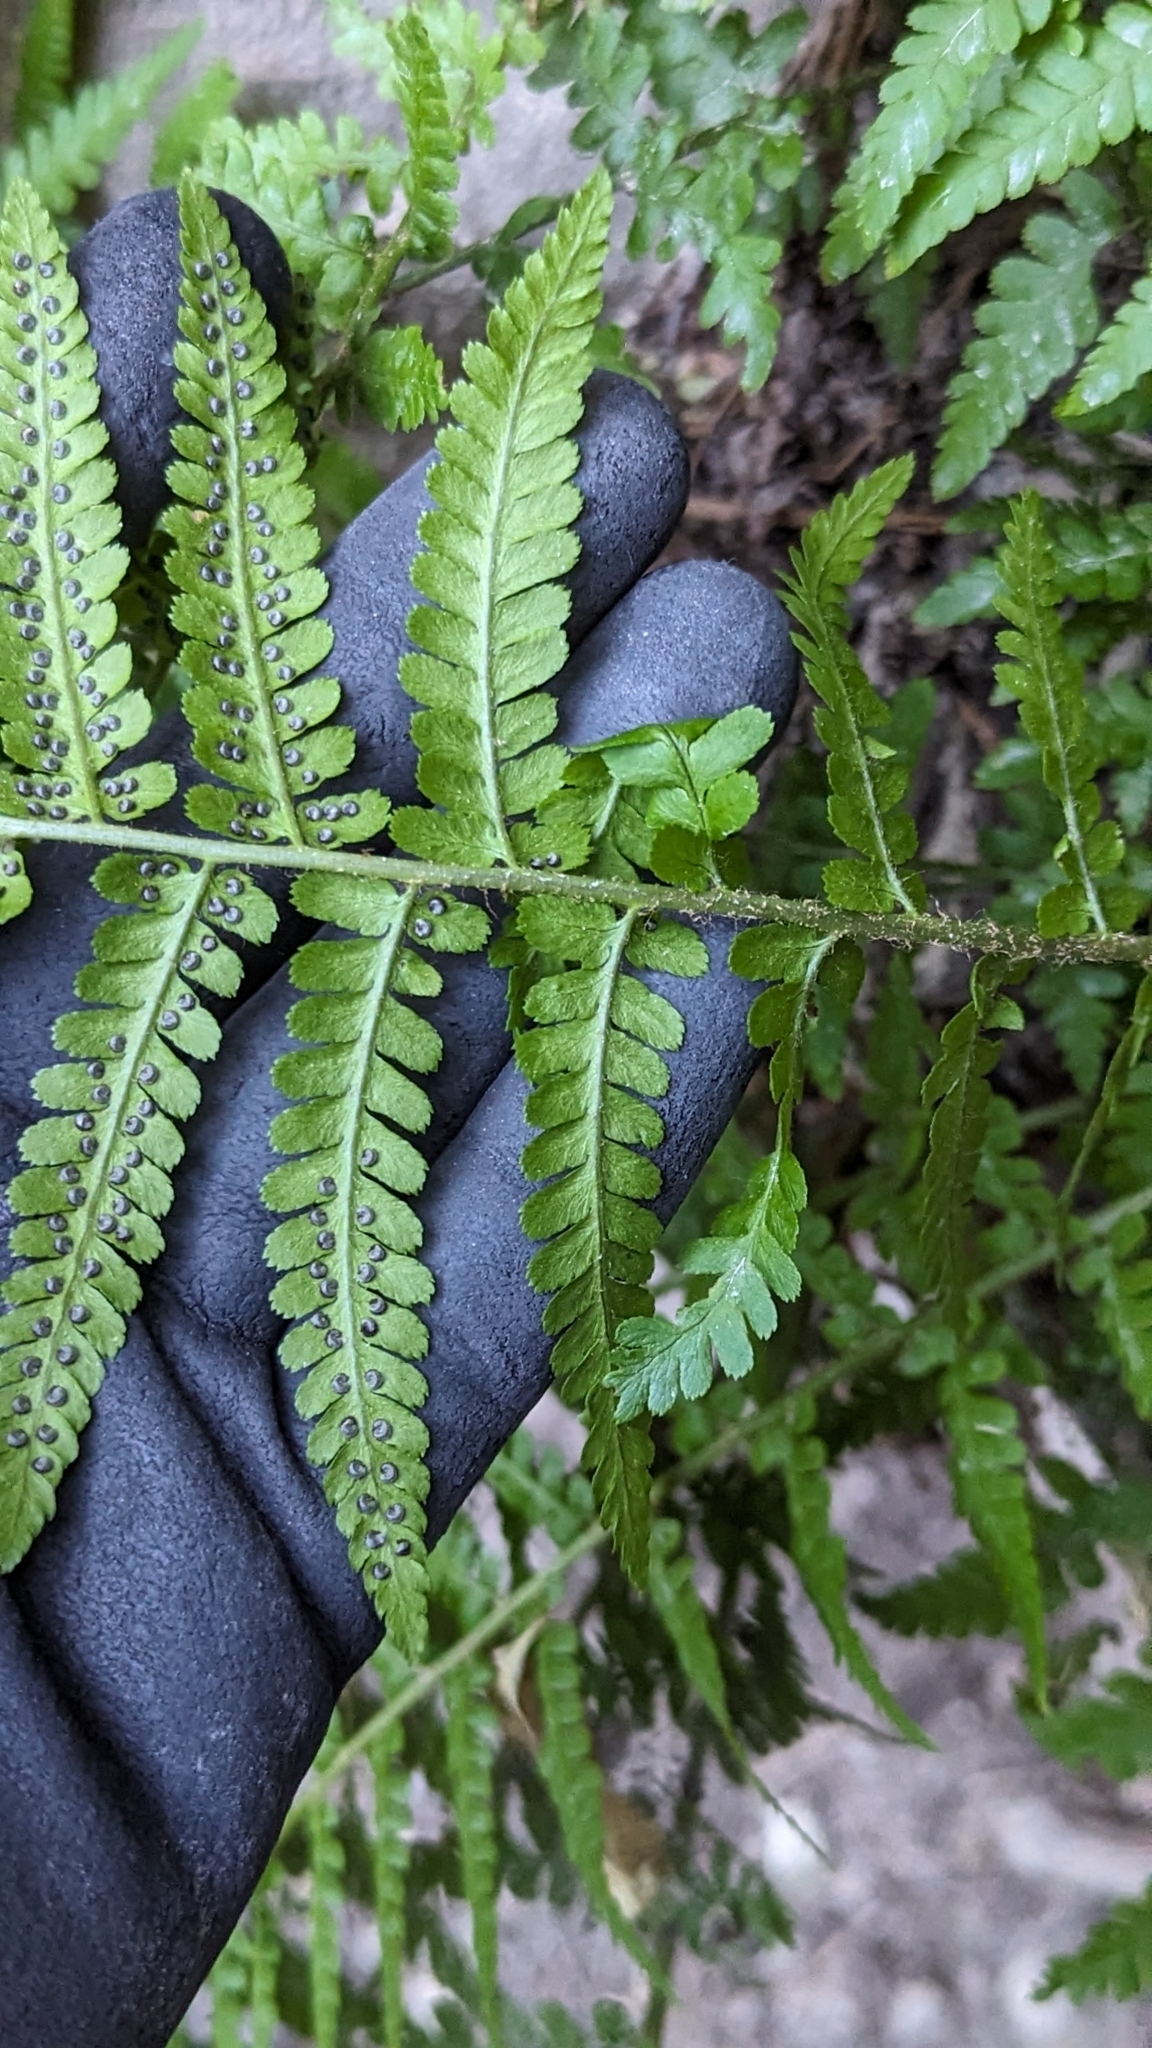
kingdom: Plantae
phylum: Tracheophyta
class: Polypodiopsida
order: Polypodiales
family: Dryopteridaceae
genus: Dryopteris
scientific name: Dryopteris filix-mas
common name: Male fern
